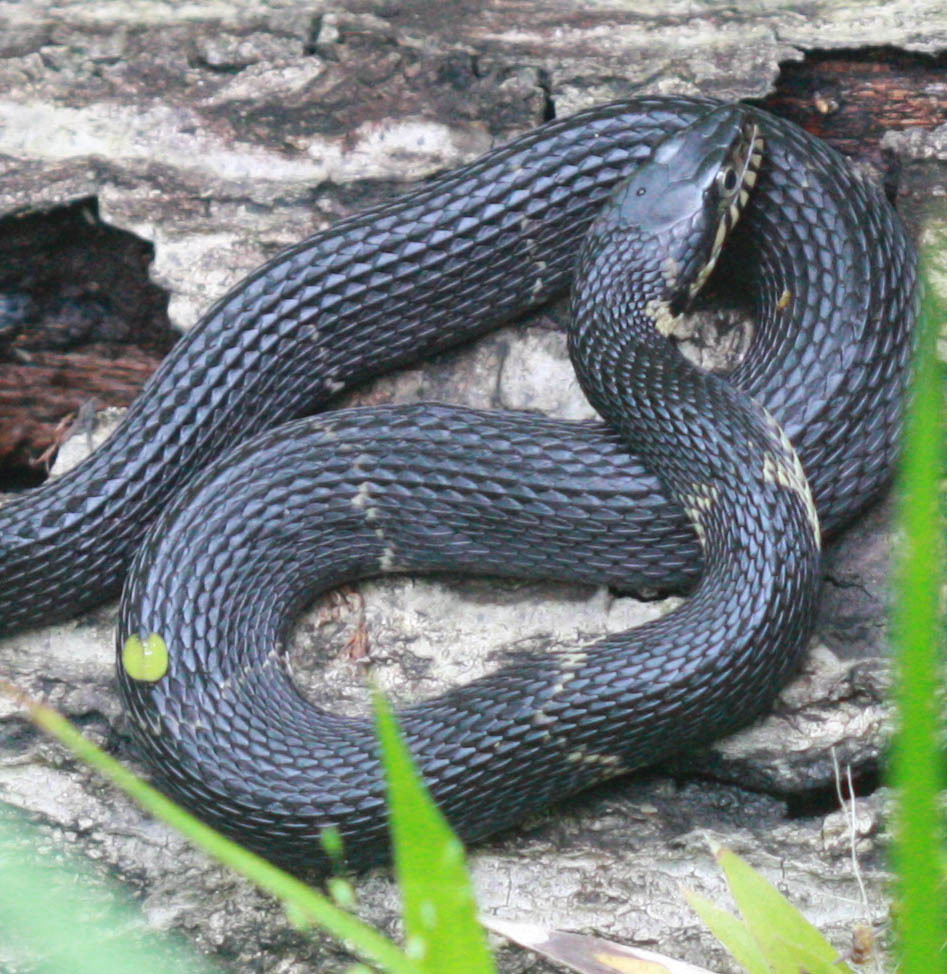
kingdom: Animalia
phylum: Chordata
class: Squamata
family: Colubridae
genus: Nerodia
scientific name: Nerodia fasciata
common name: Southern water snake
